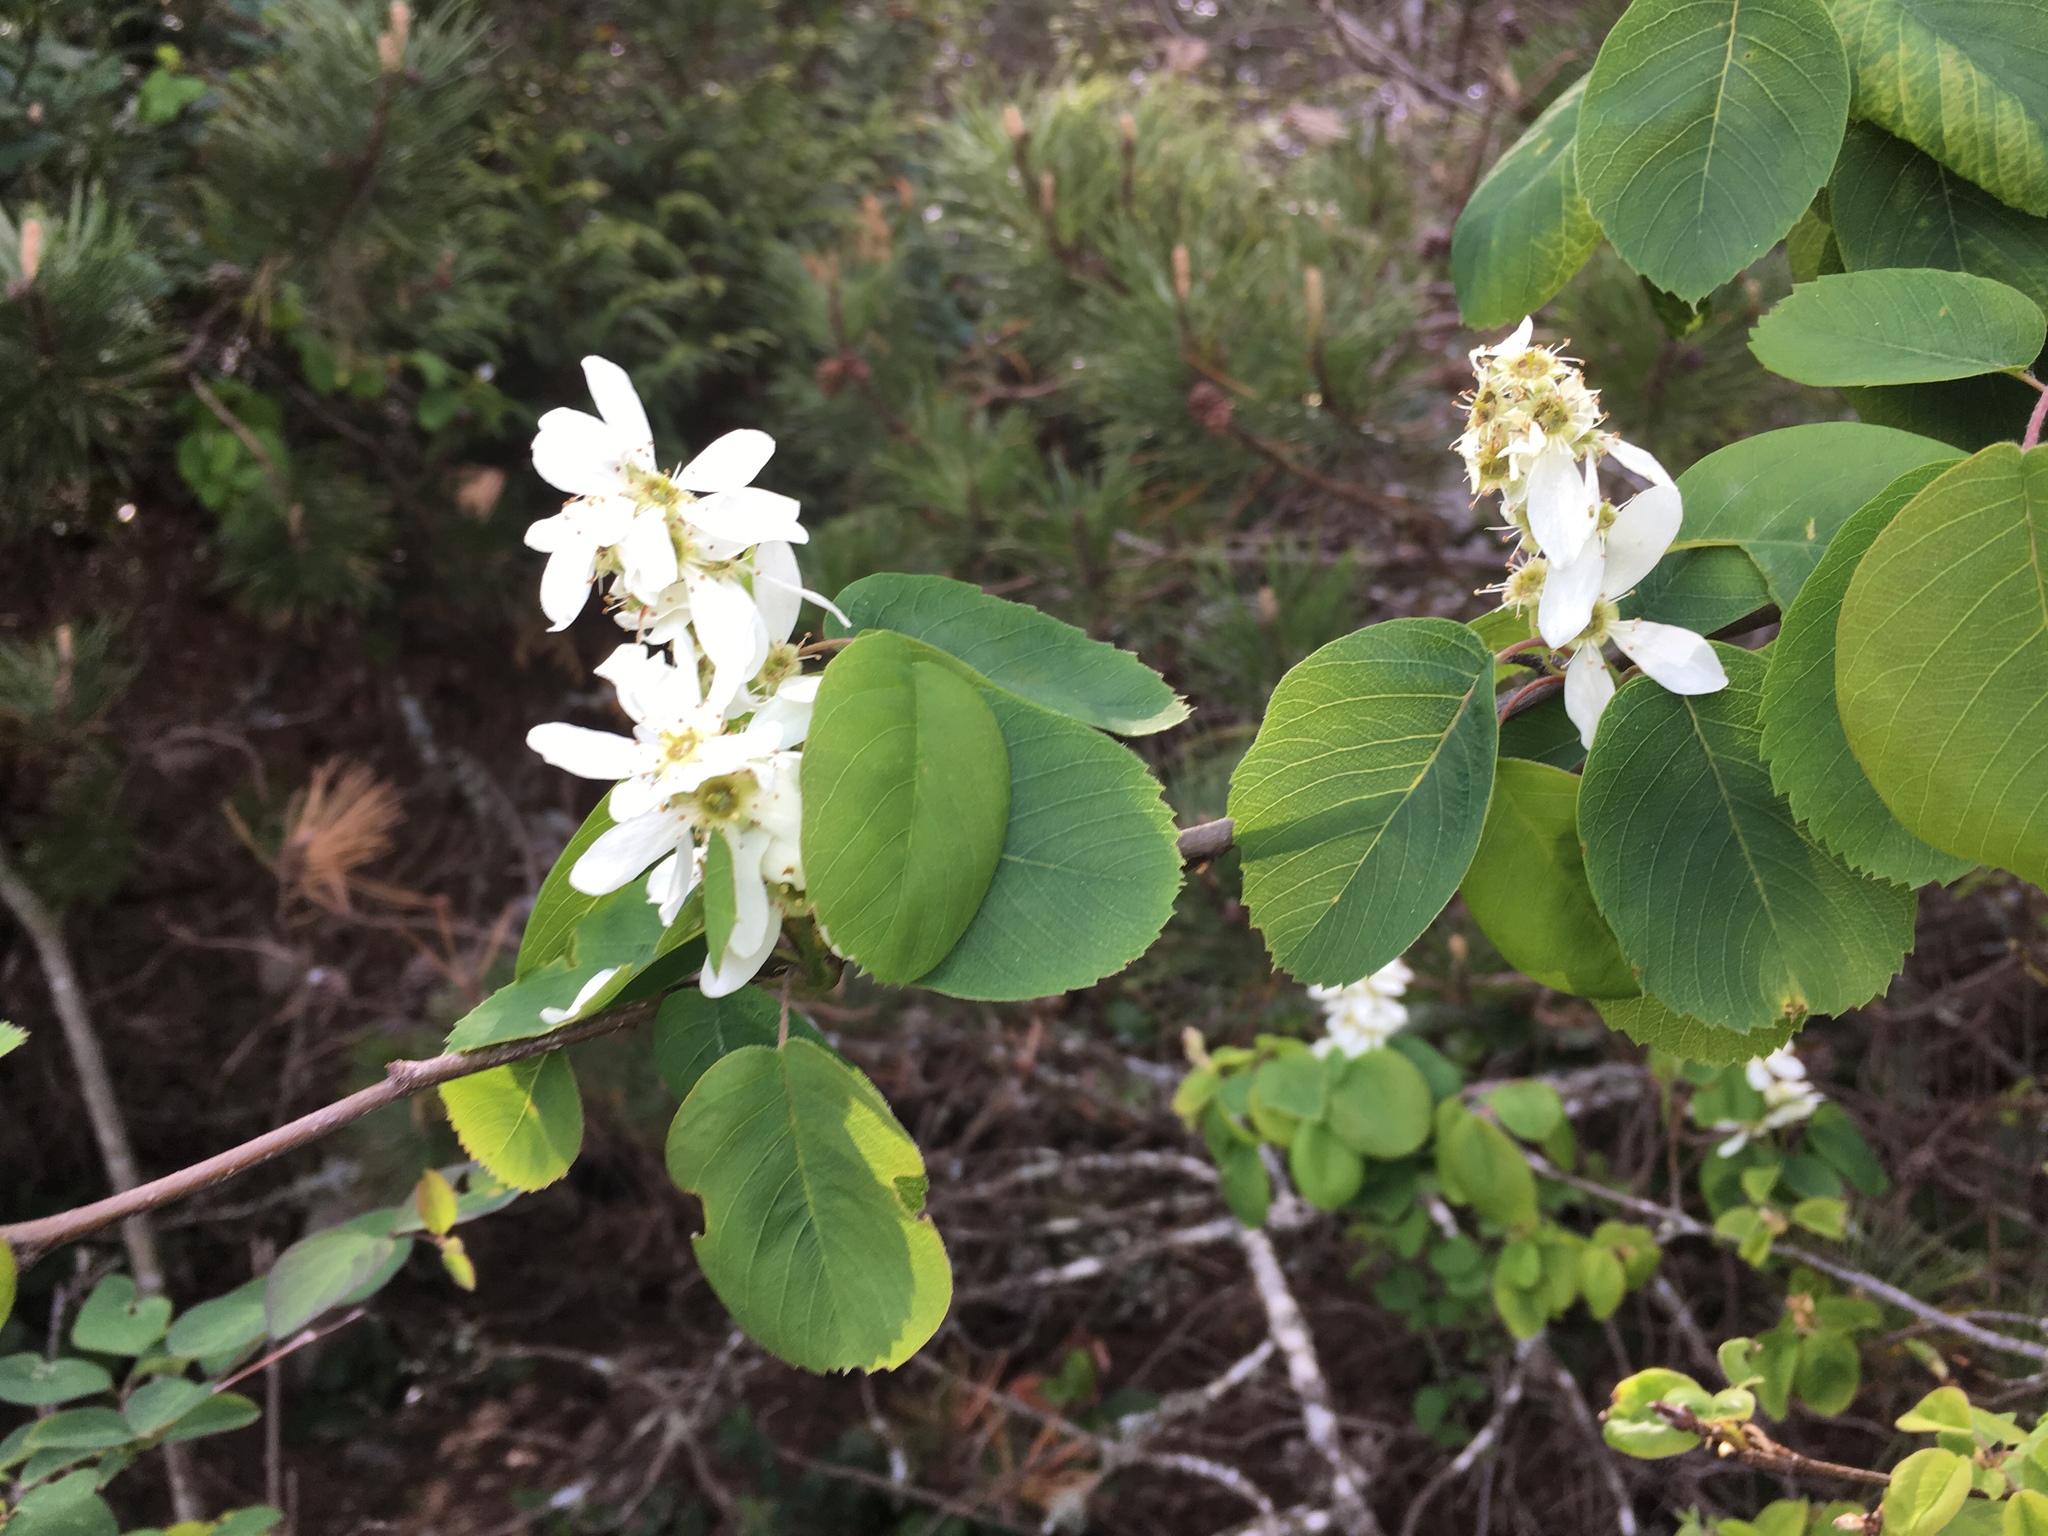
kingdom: Plantae
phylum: Tracheophyta
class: Magnoliopsida
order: Rosales
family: Rosaceae
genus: Amelanchier
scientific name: Amelanchier alnifolia
